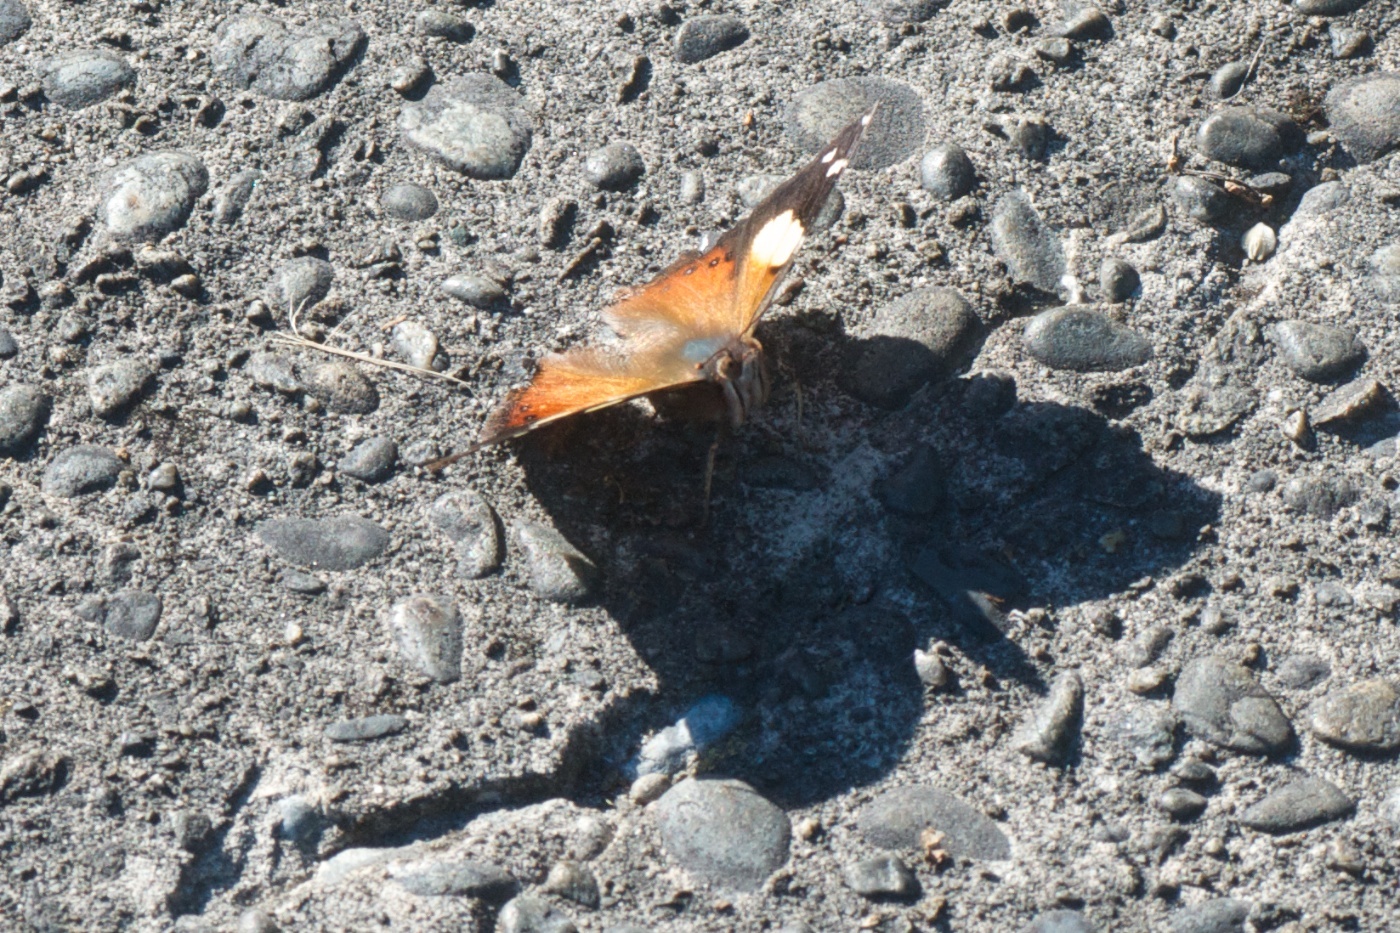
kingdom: Animalia
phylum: Arthropoda
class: Insecta
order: Lepidoptera
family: Nymphalidae
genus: Vanessa
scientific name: Vanessa itea
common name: Yellow admiral
